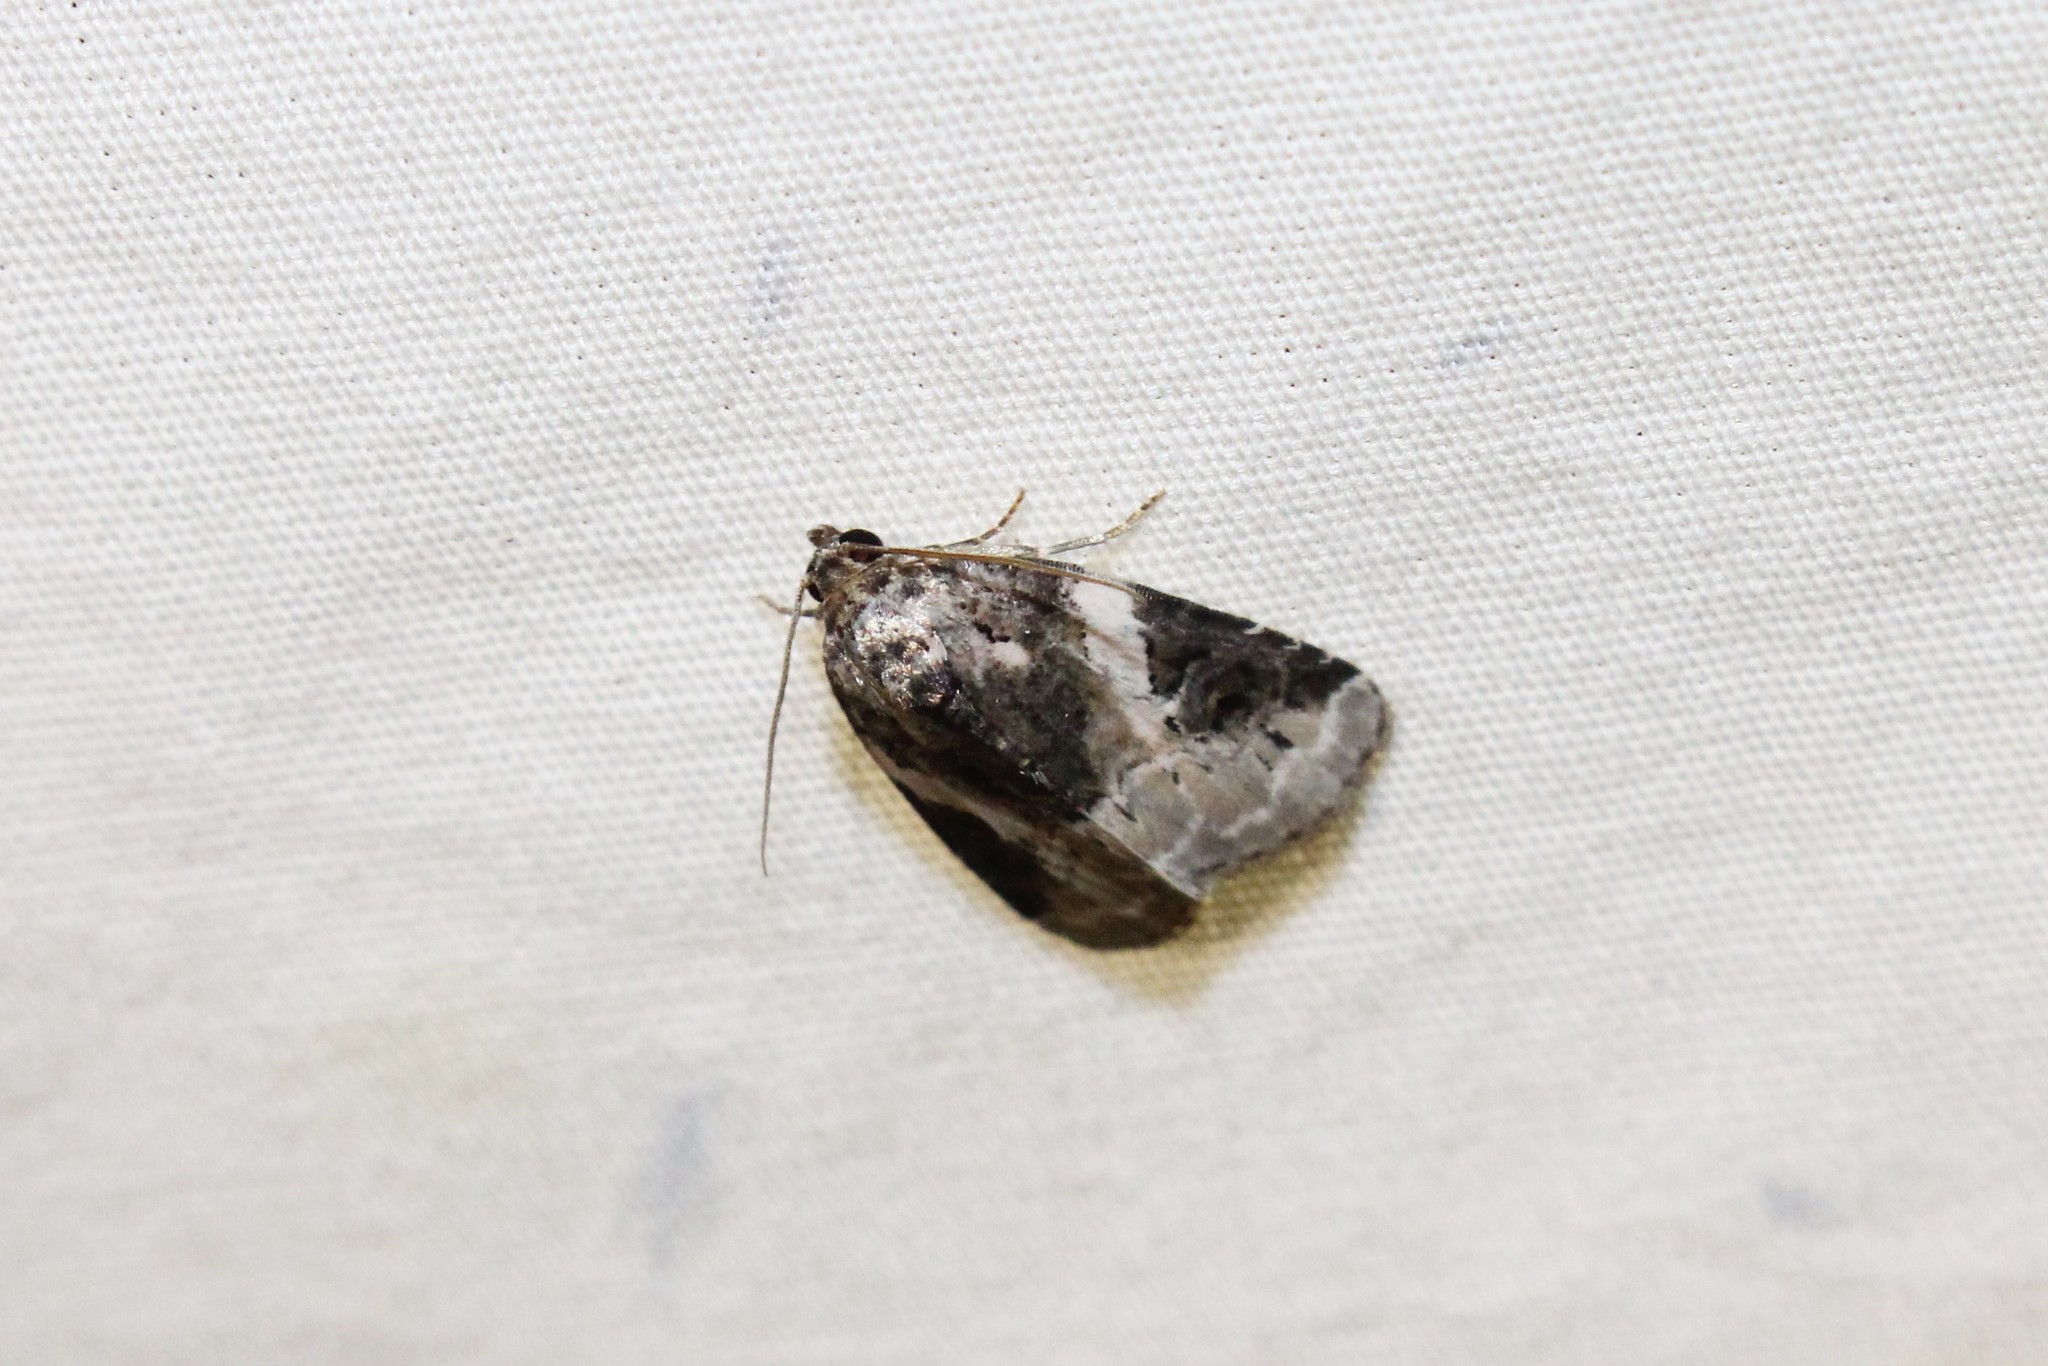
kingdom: Animalia
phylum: Arthropoda
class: Insecta
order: Lepidoptera
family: Noctuidae
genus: Pseudeustrotia
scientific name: Pseudeustrotia carneola
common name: Pink-barred lithacodia moth
